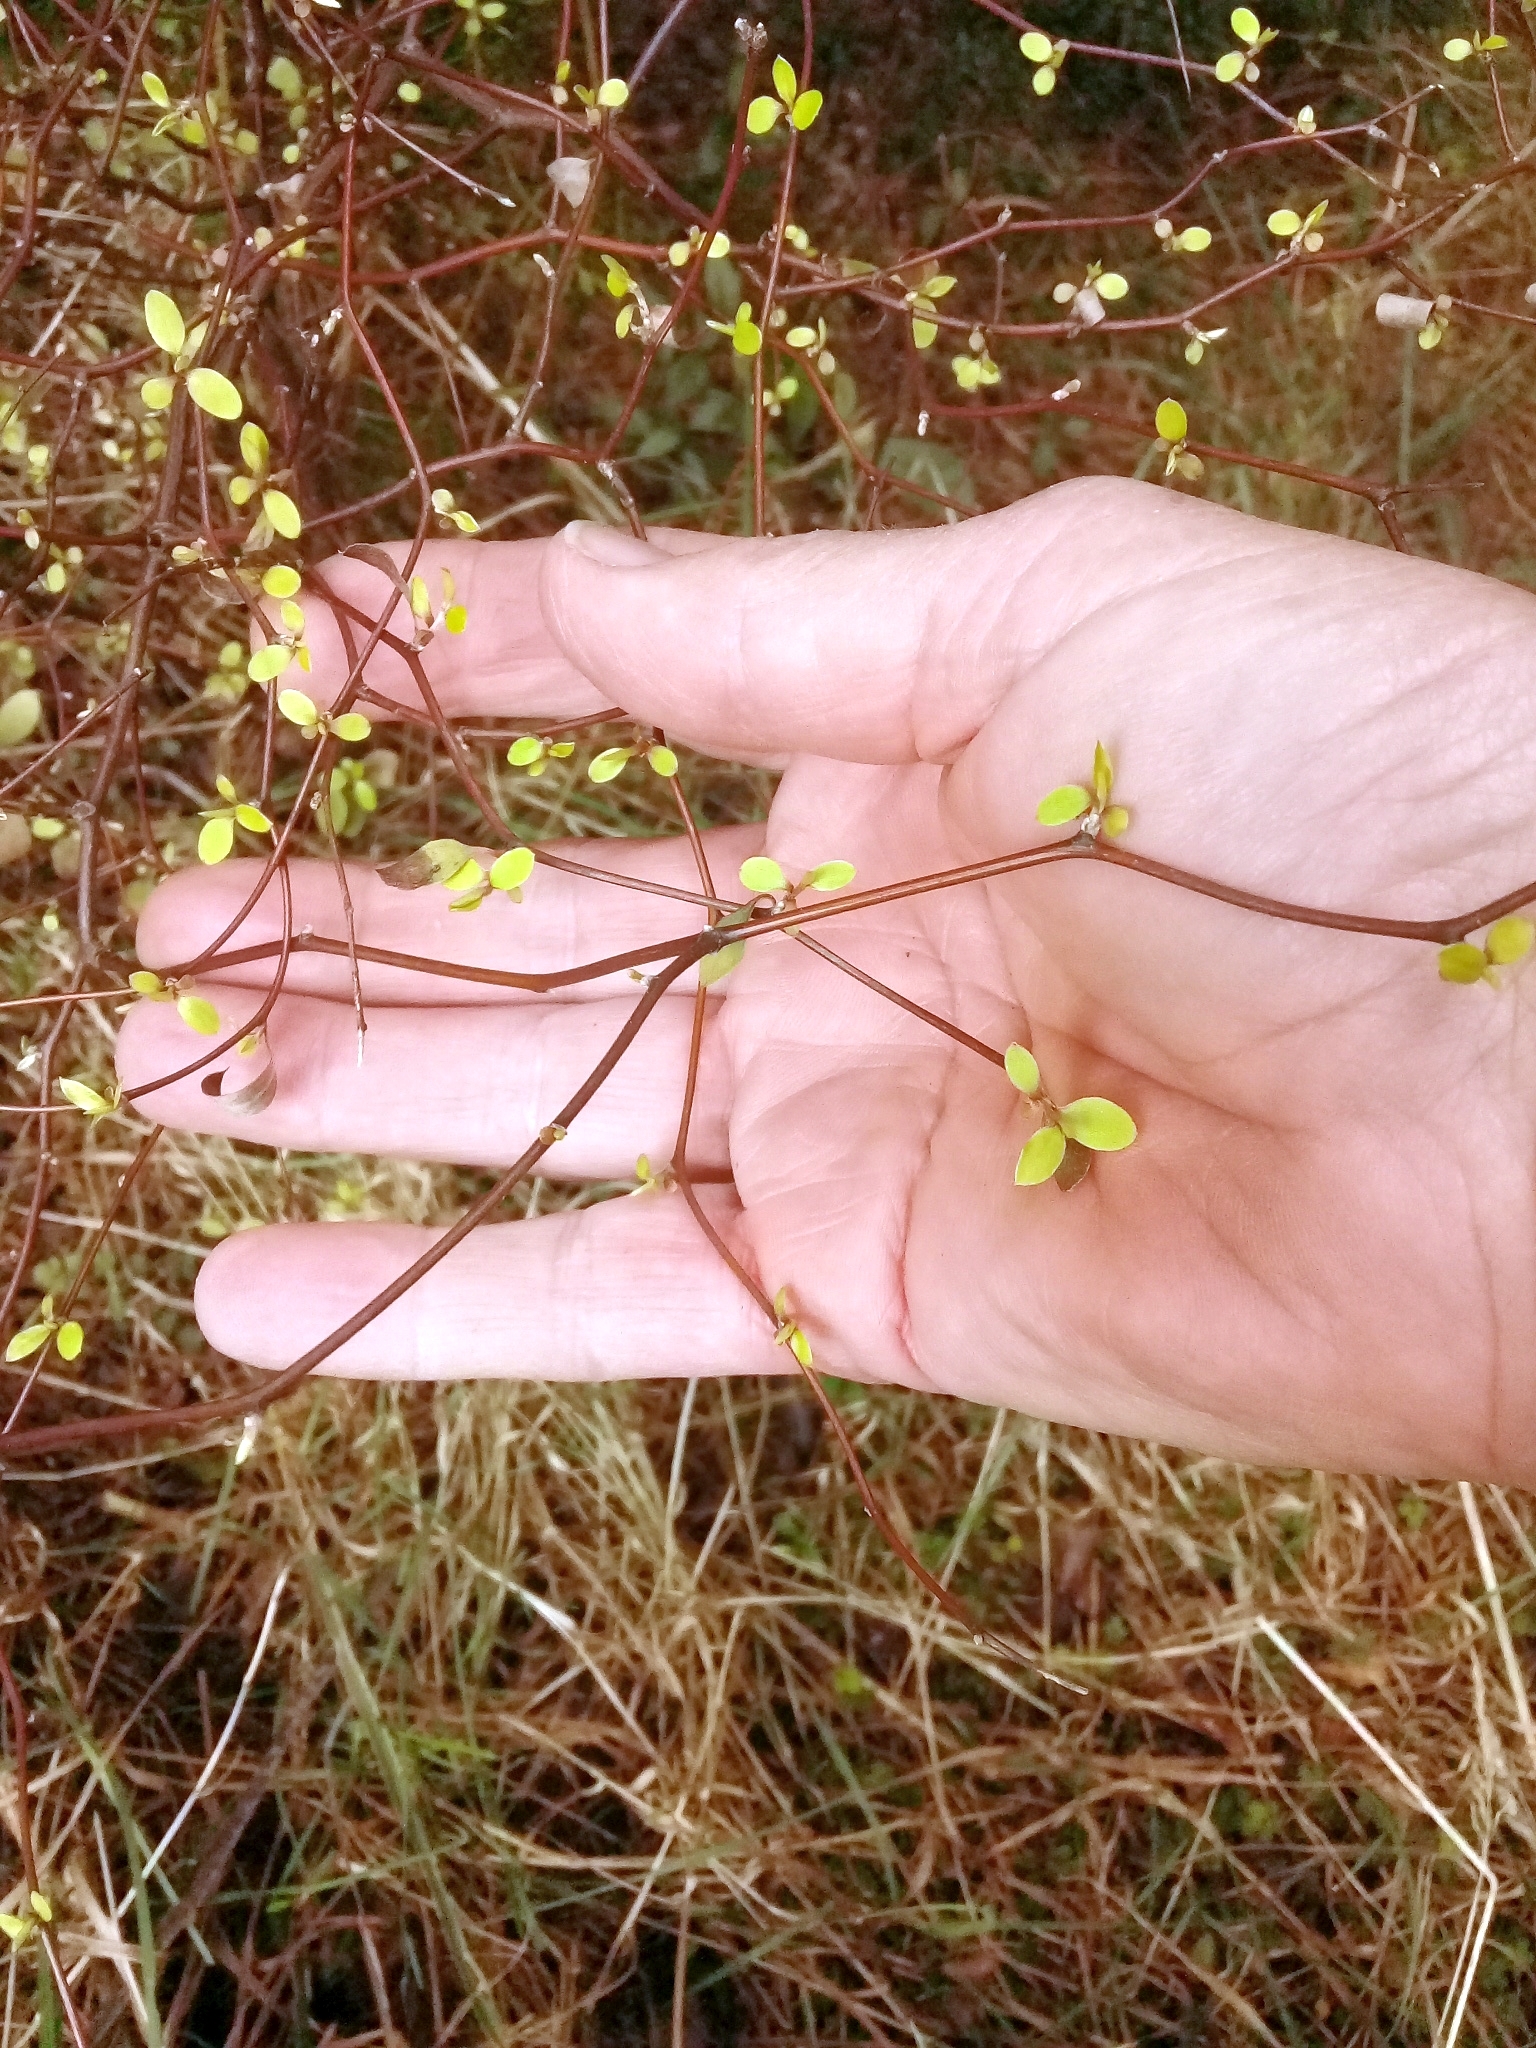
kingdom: Plantae
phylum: Tracheophyta
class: Magnoliopsida
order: Asterales
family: Asteraceae
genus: Olearia
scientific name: Olearia fragrantissima
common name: Fragrant tree daisy
